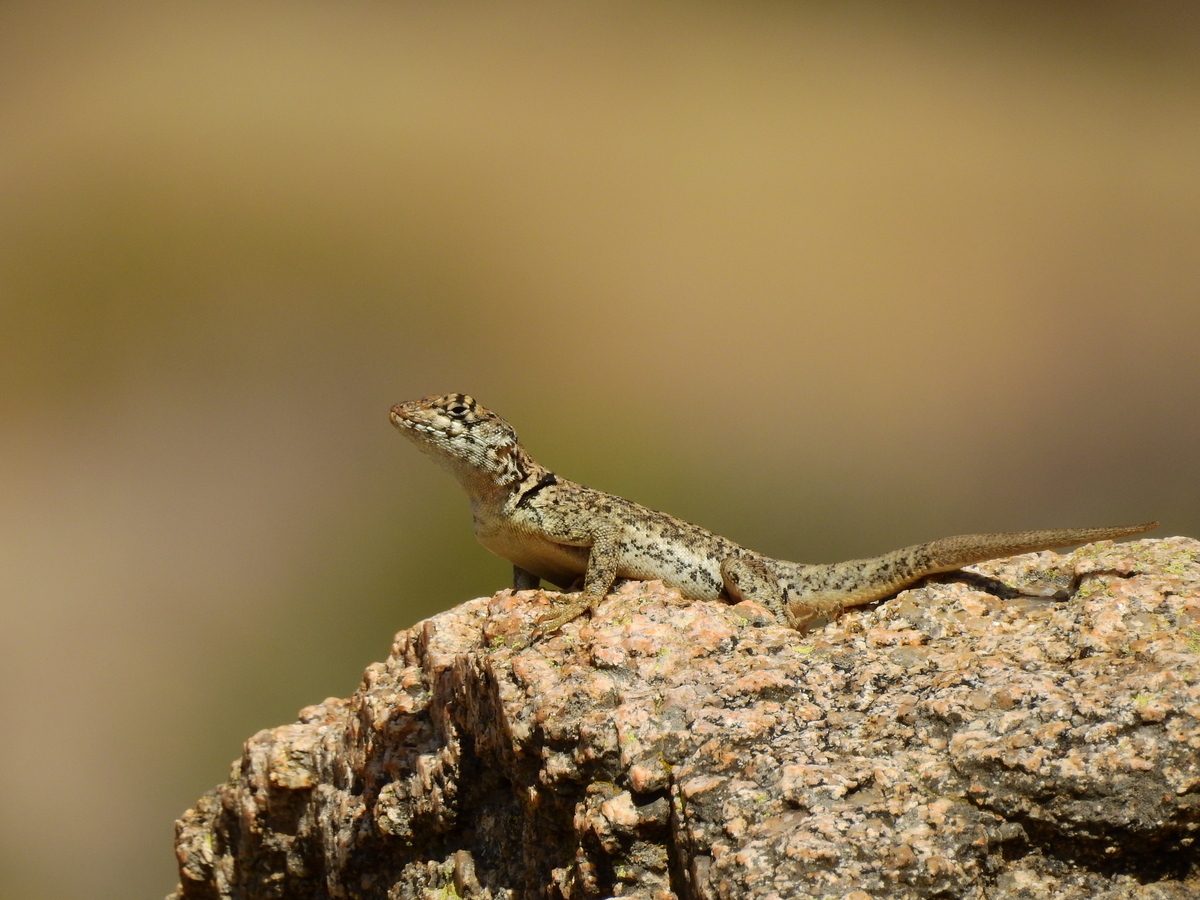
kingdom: Animalia
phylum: Chordata
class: Squamata
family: Tropiduridae
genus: Tropidurus
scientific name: Tropidurus etheridgei
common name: Etheridge's lava lizard
